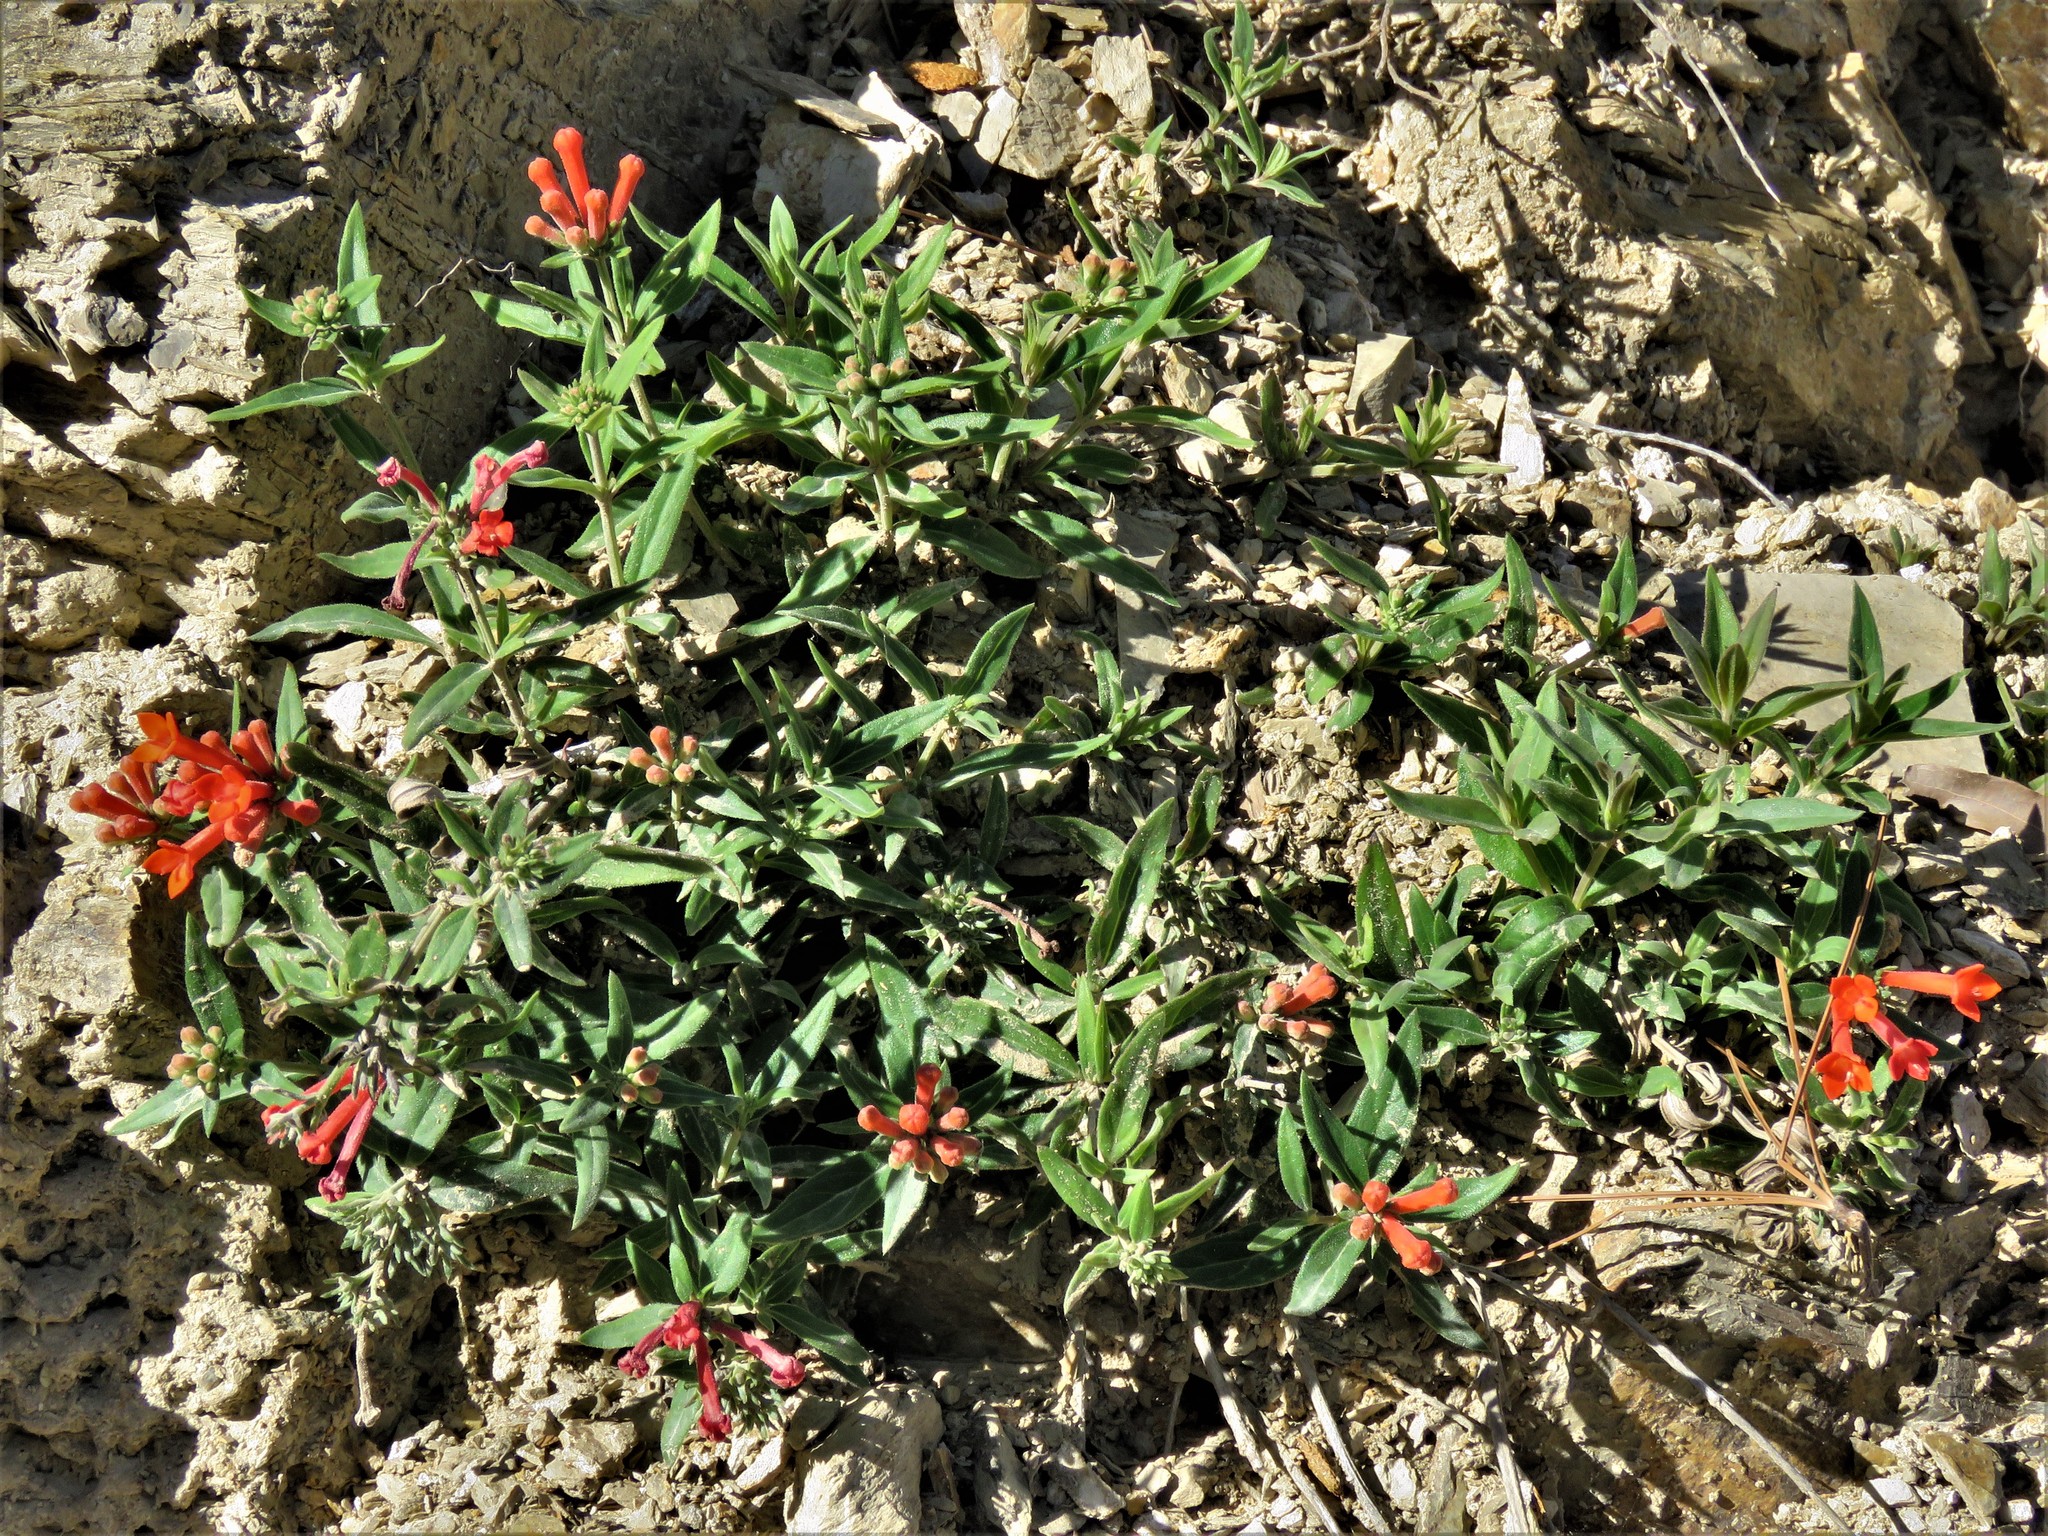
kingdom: Plantae
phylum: Tracheophyta
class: Magnoliopsida
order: Gentianales
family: Rubiaceae
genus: Bouvardia
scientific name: Bouvardia ternifolia
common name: Scarlet bouvardia
